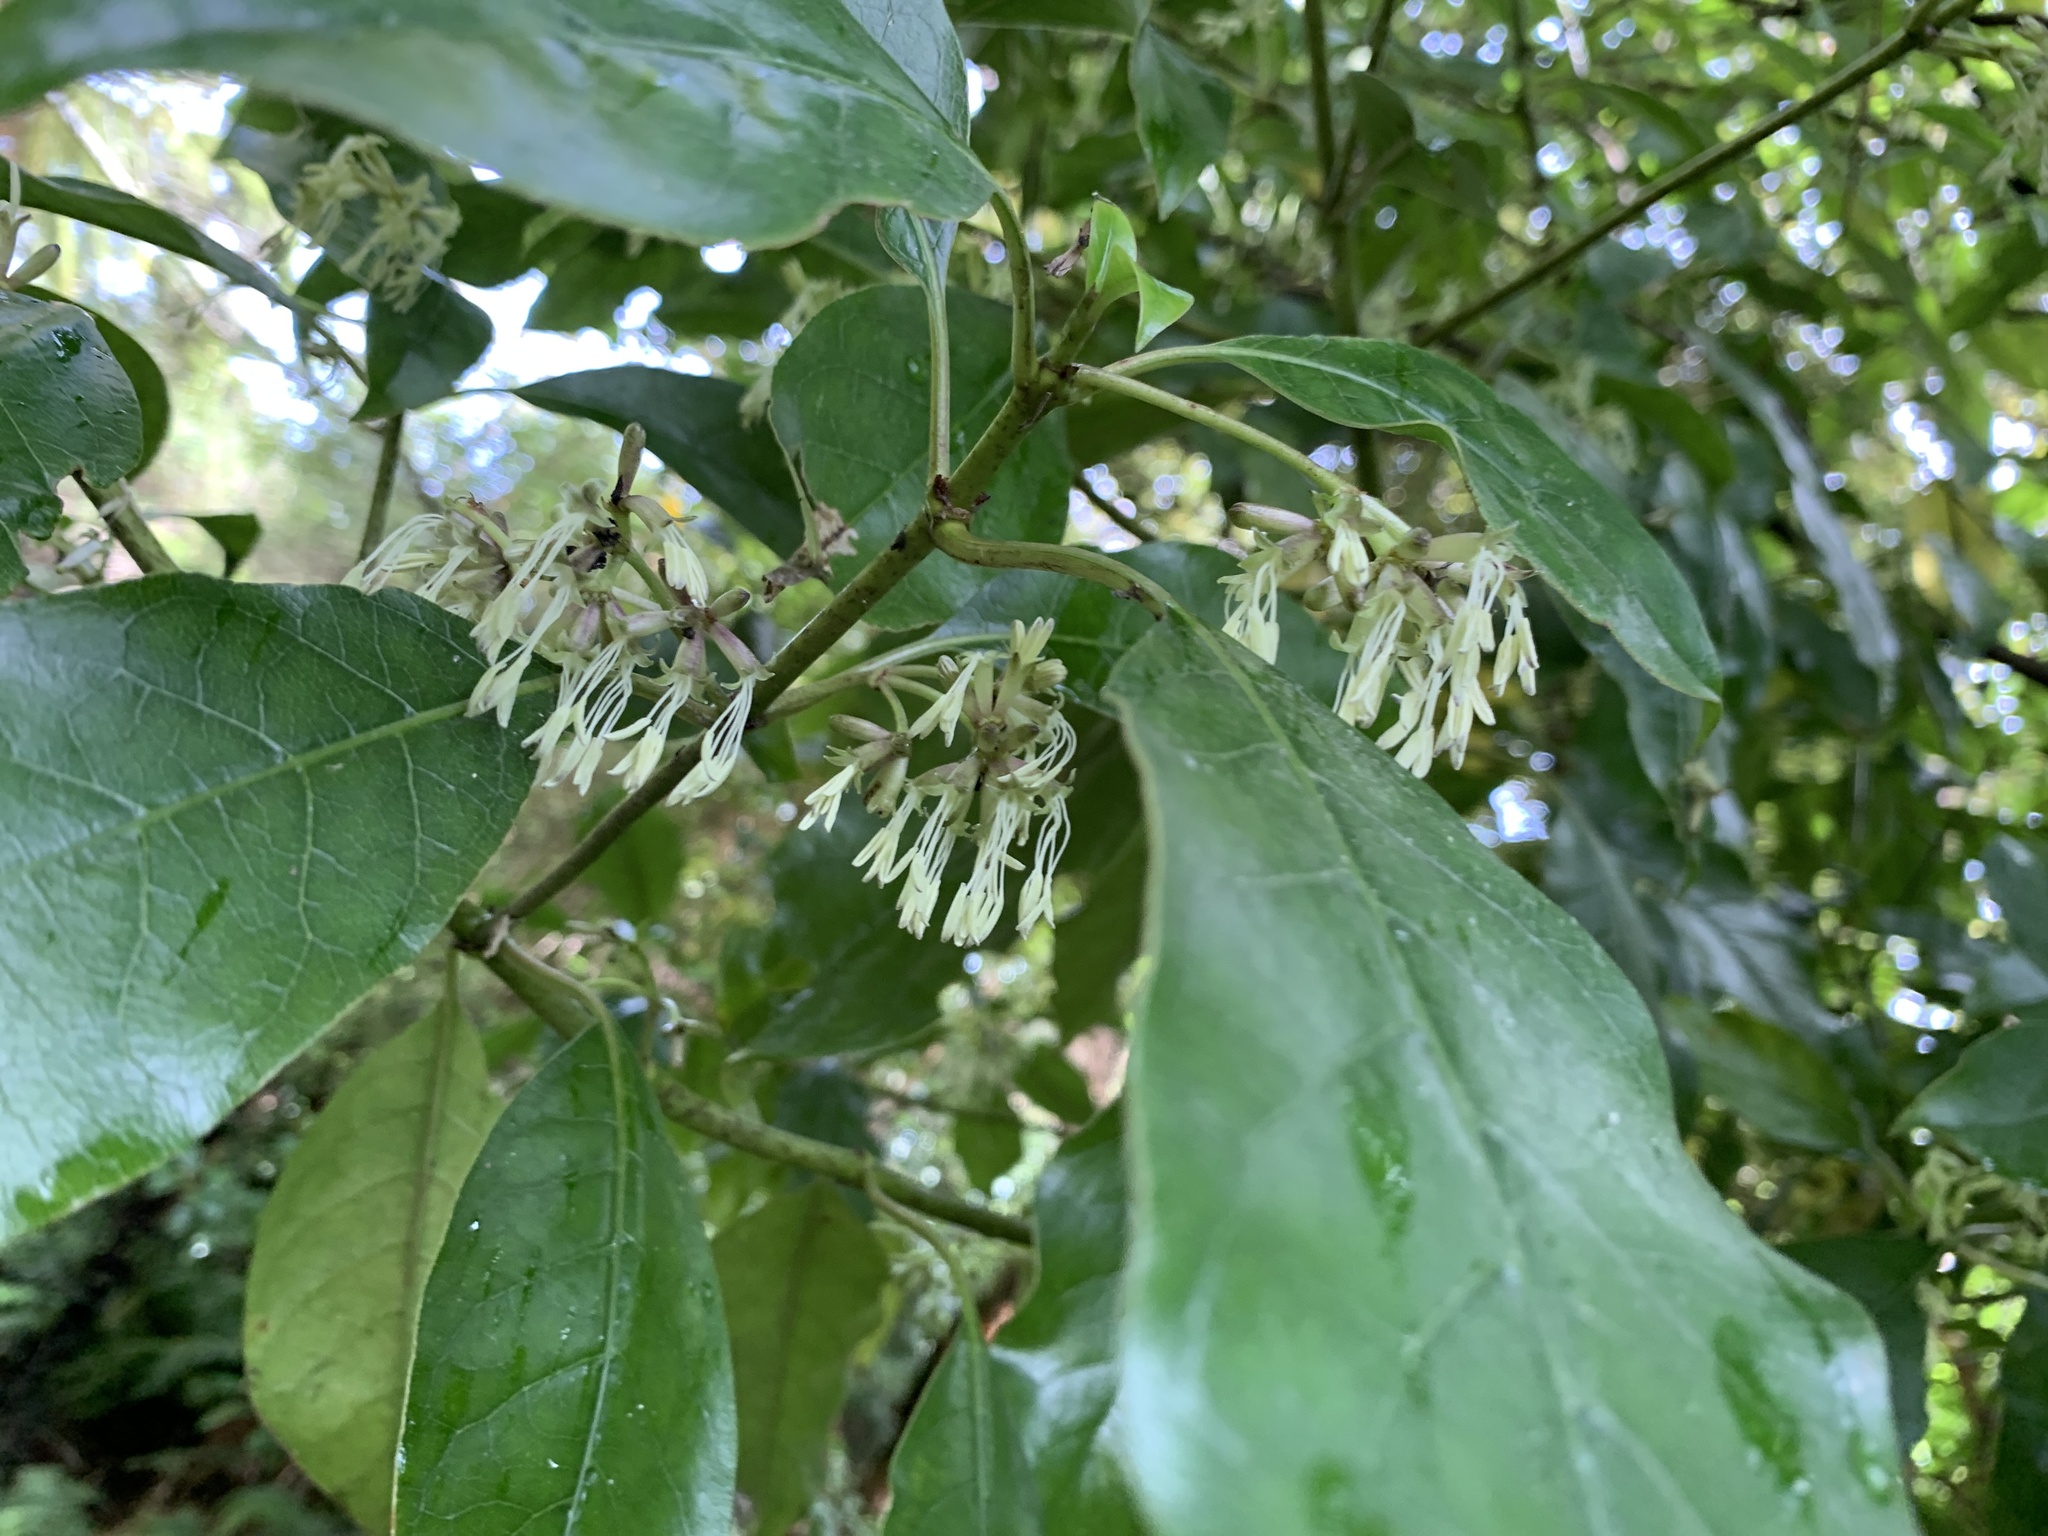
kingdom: Plantae
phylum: Tracheophyta
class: Magnoliopsida
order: Gentianales
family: Rubiaceae
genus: Coprosma
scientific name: Coprosma autumnalis
